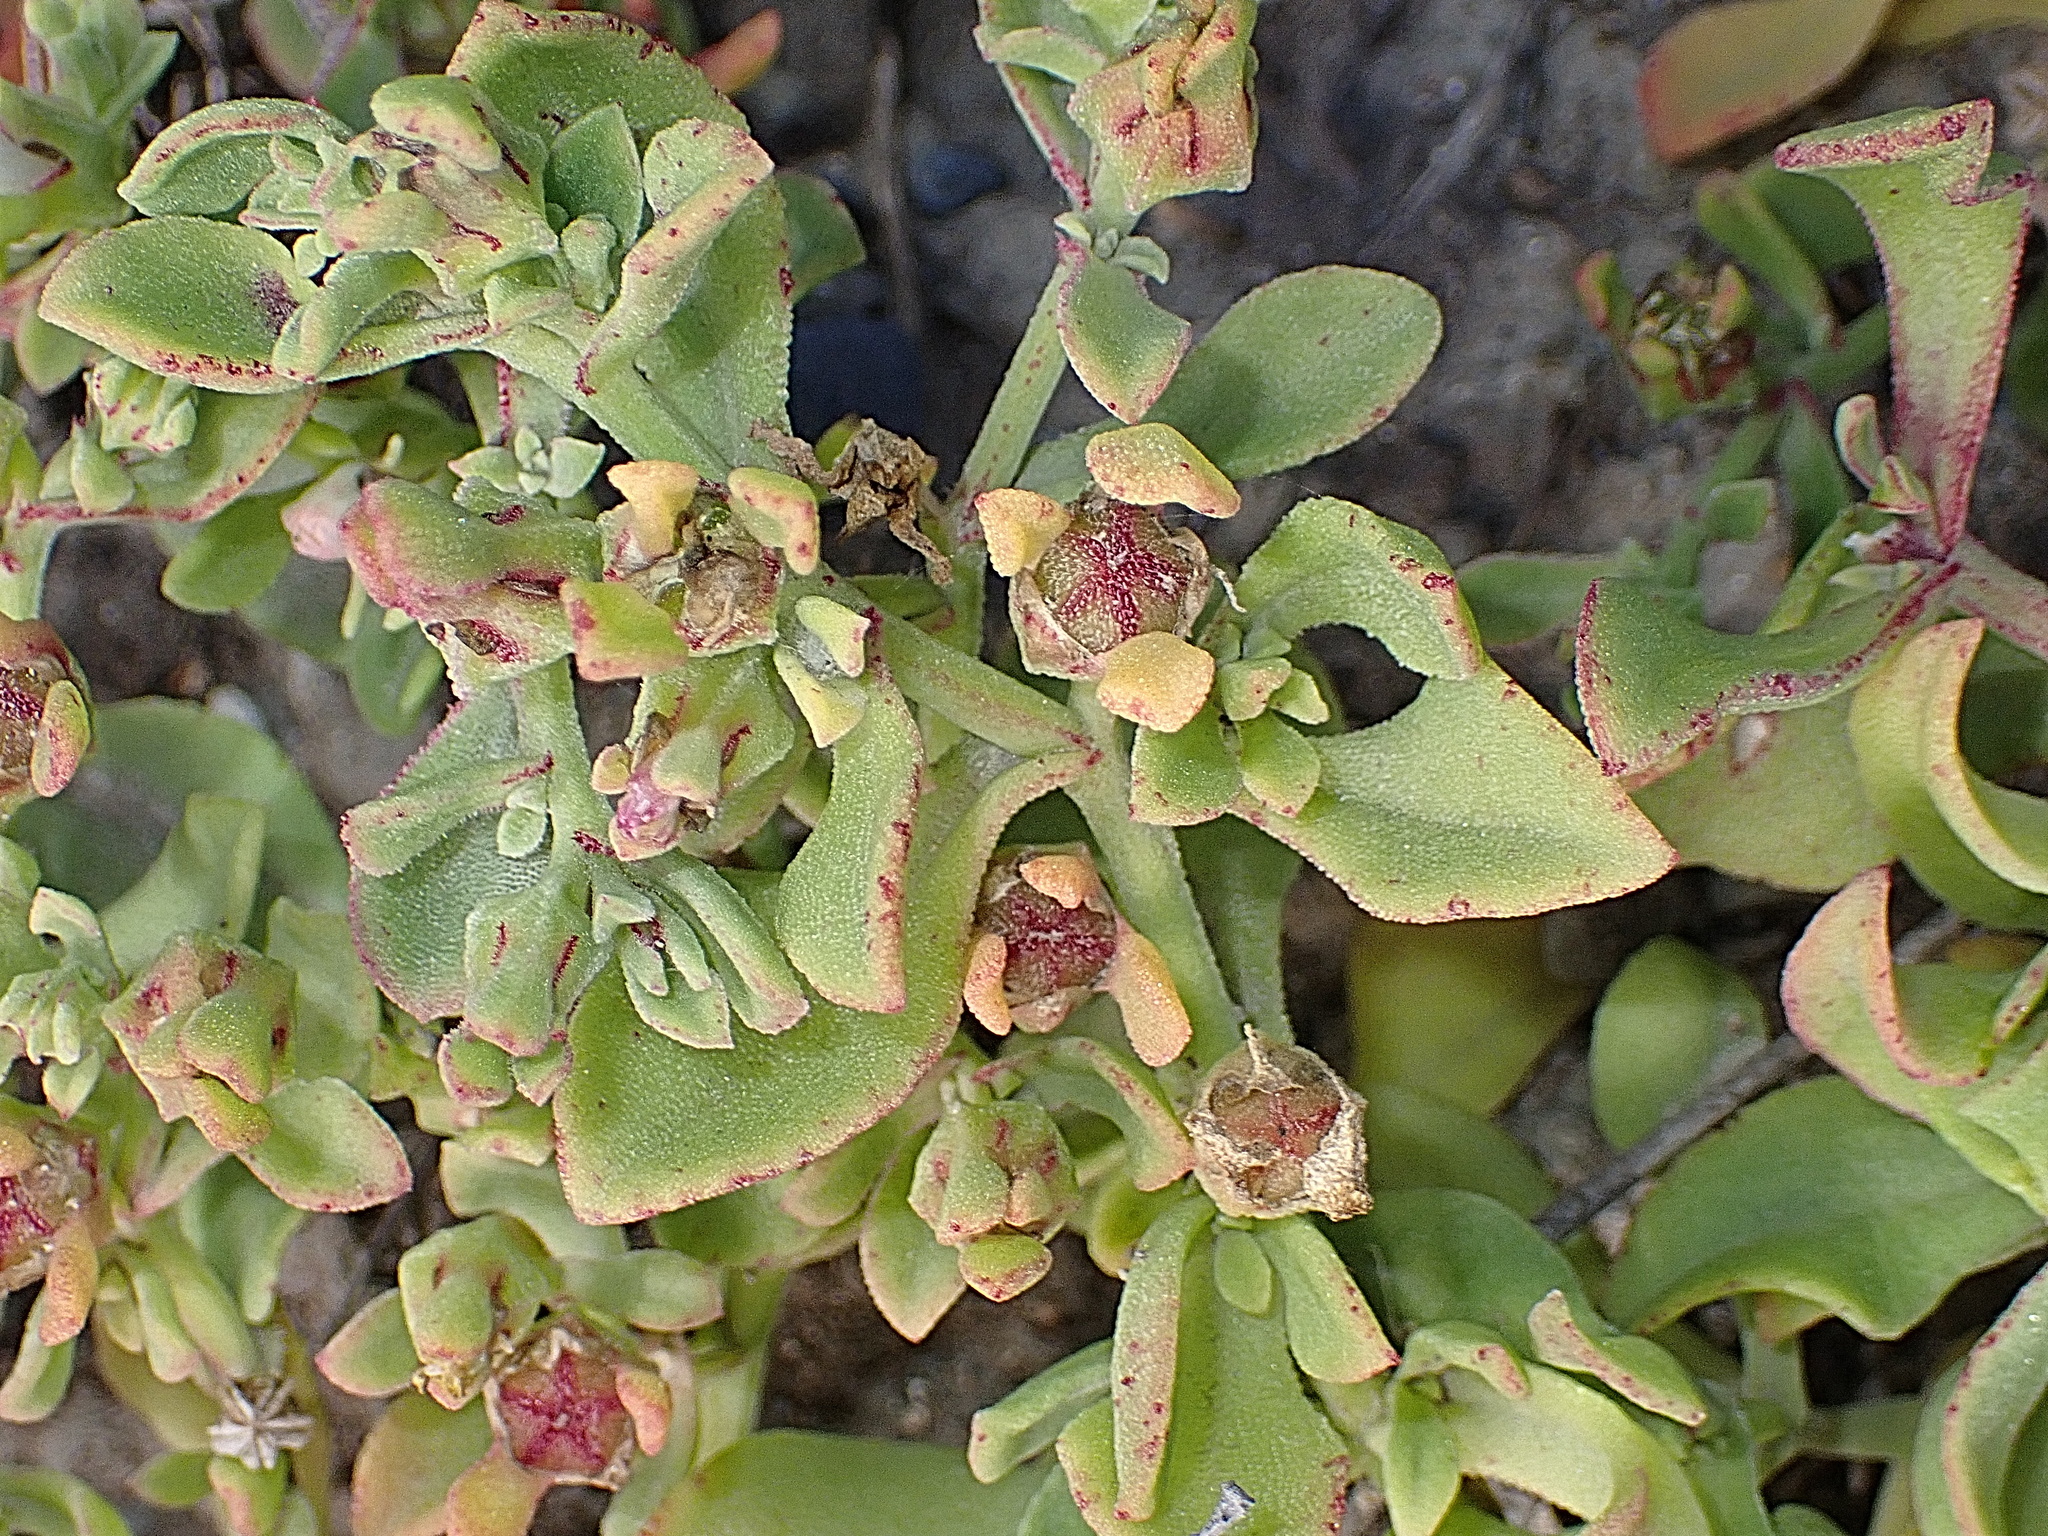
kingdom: Plantae
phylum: Tracheophyta
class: Magnoliopsida
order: Caryophyllales
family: Aizoaceae
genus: Mesembryanthemum
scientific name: Mesembryanthemum aitonis
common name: Angled iceplant
